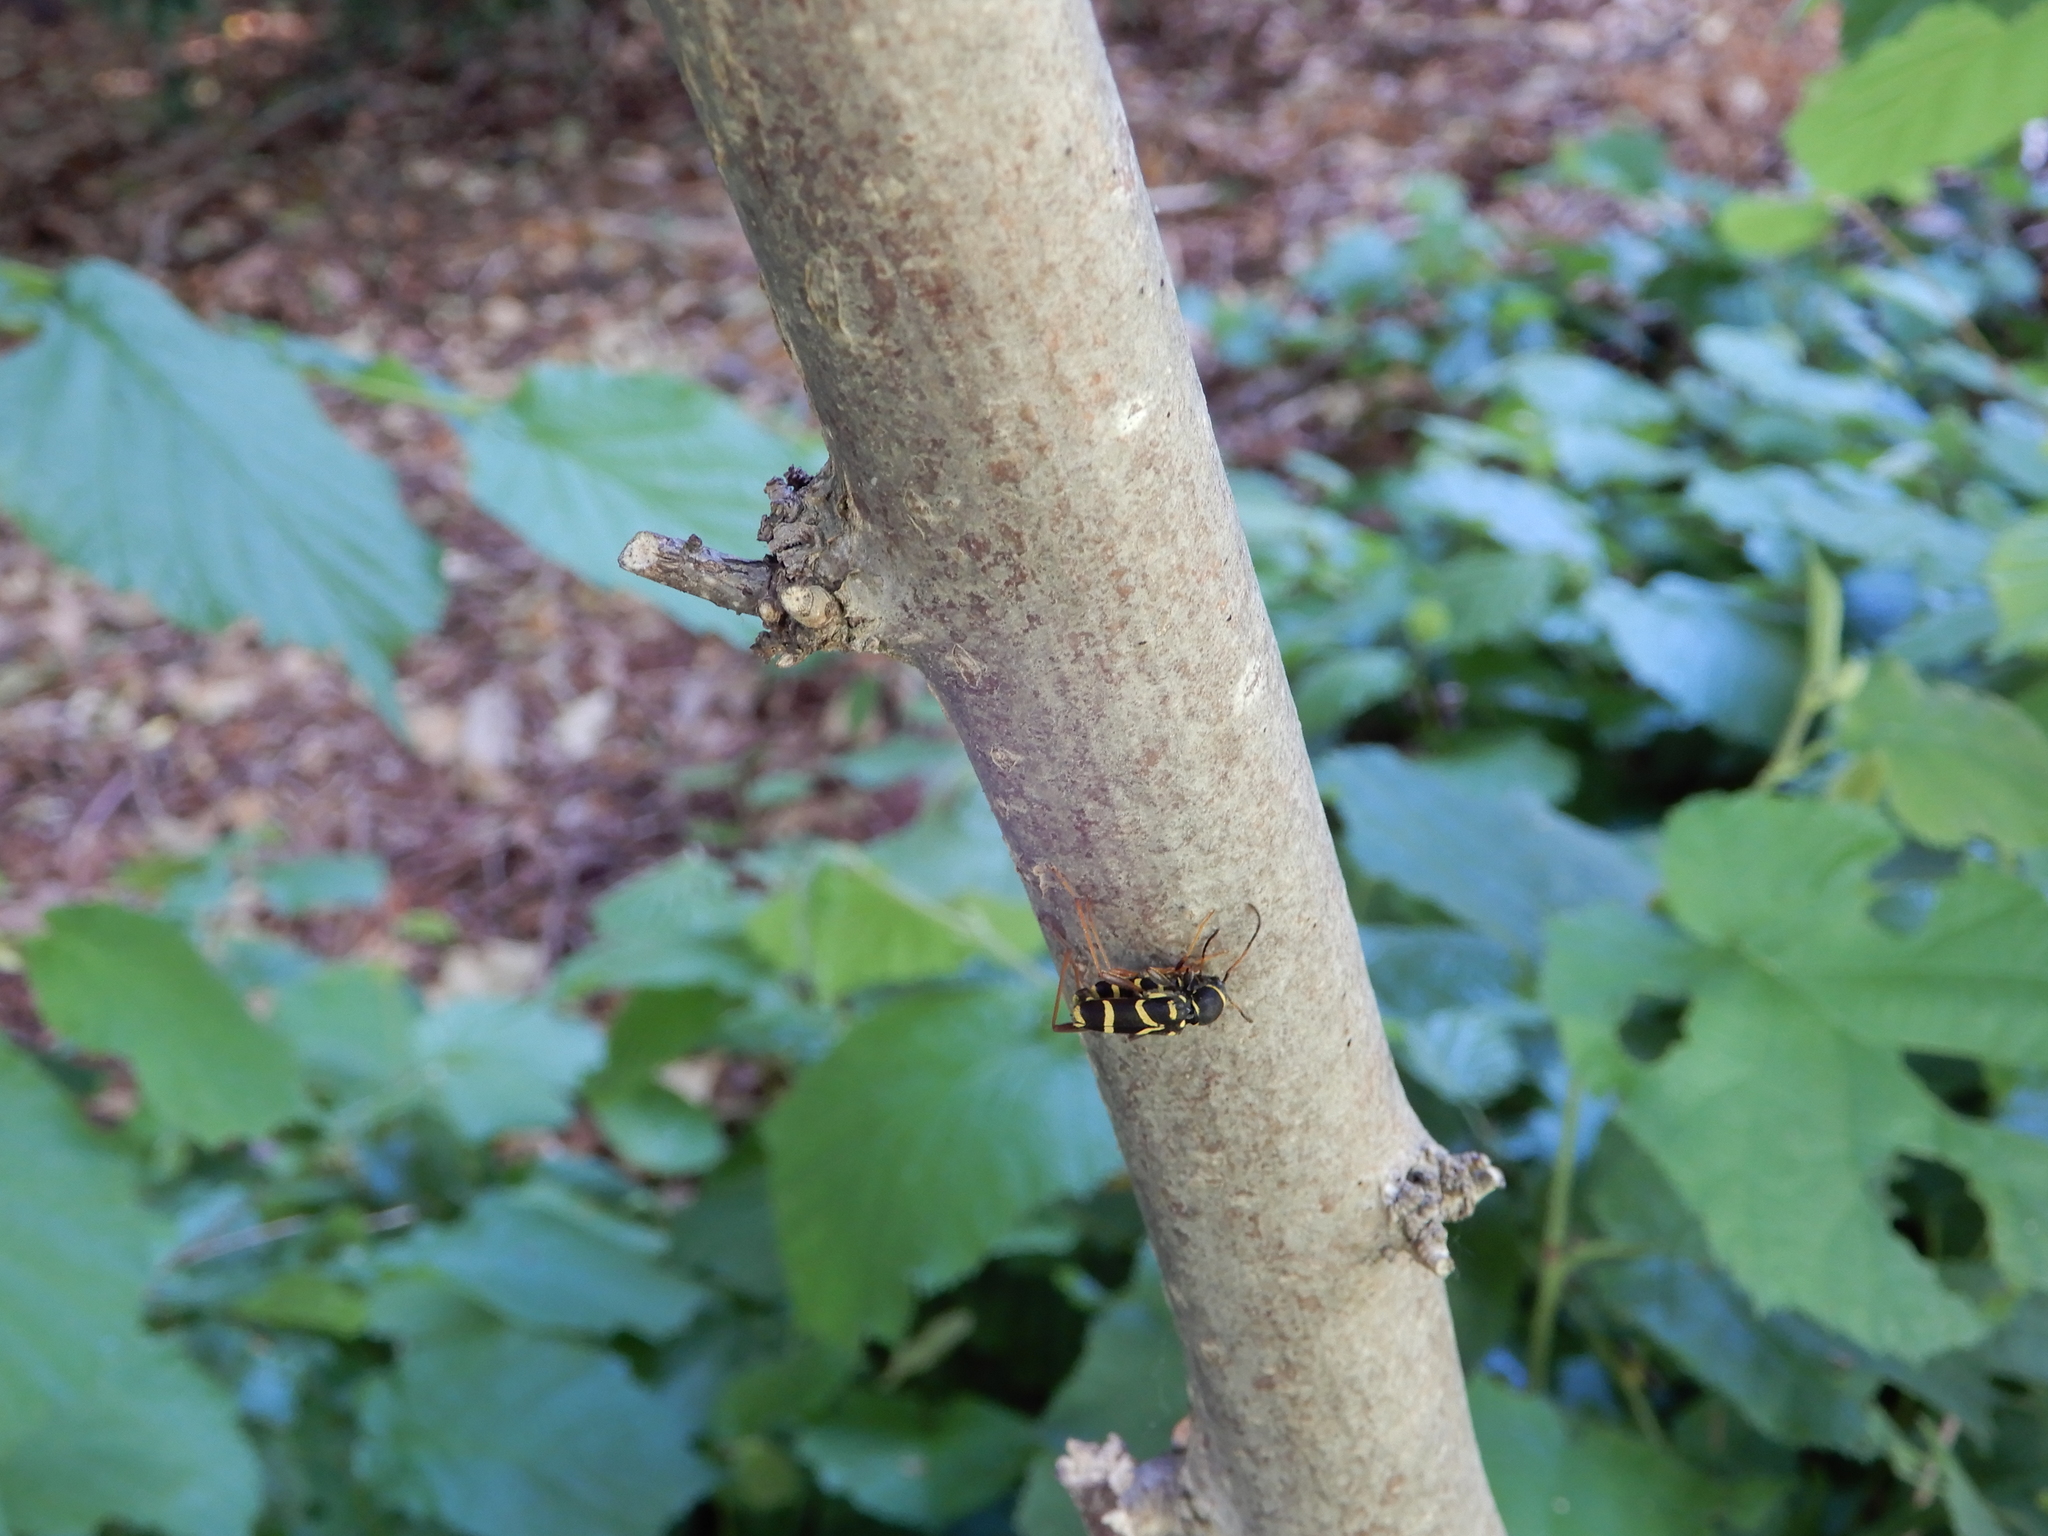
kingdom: Animalia
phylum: Arthropoda
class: Insecta
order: Coleoptera
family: Cerambycidae
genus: Clytus
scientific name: Clytus arietis
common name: Wasp beetle
